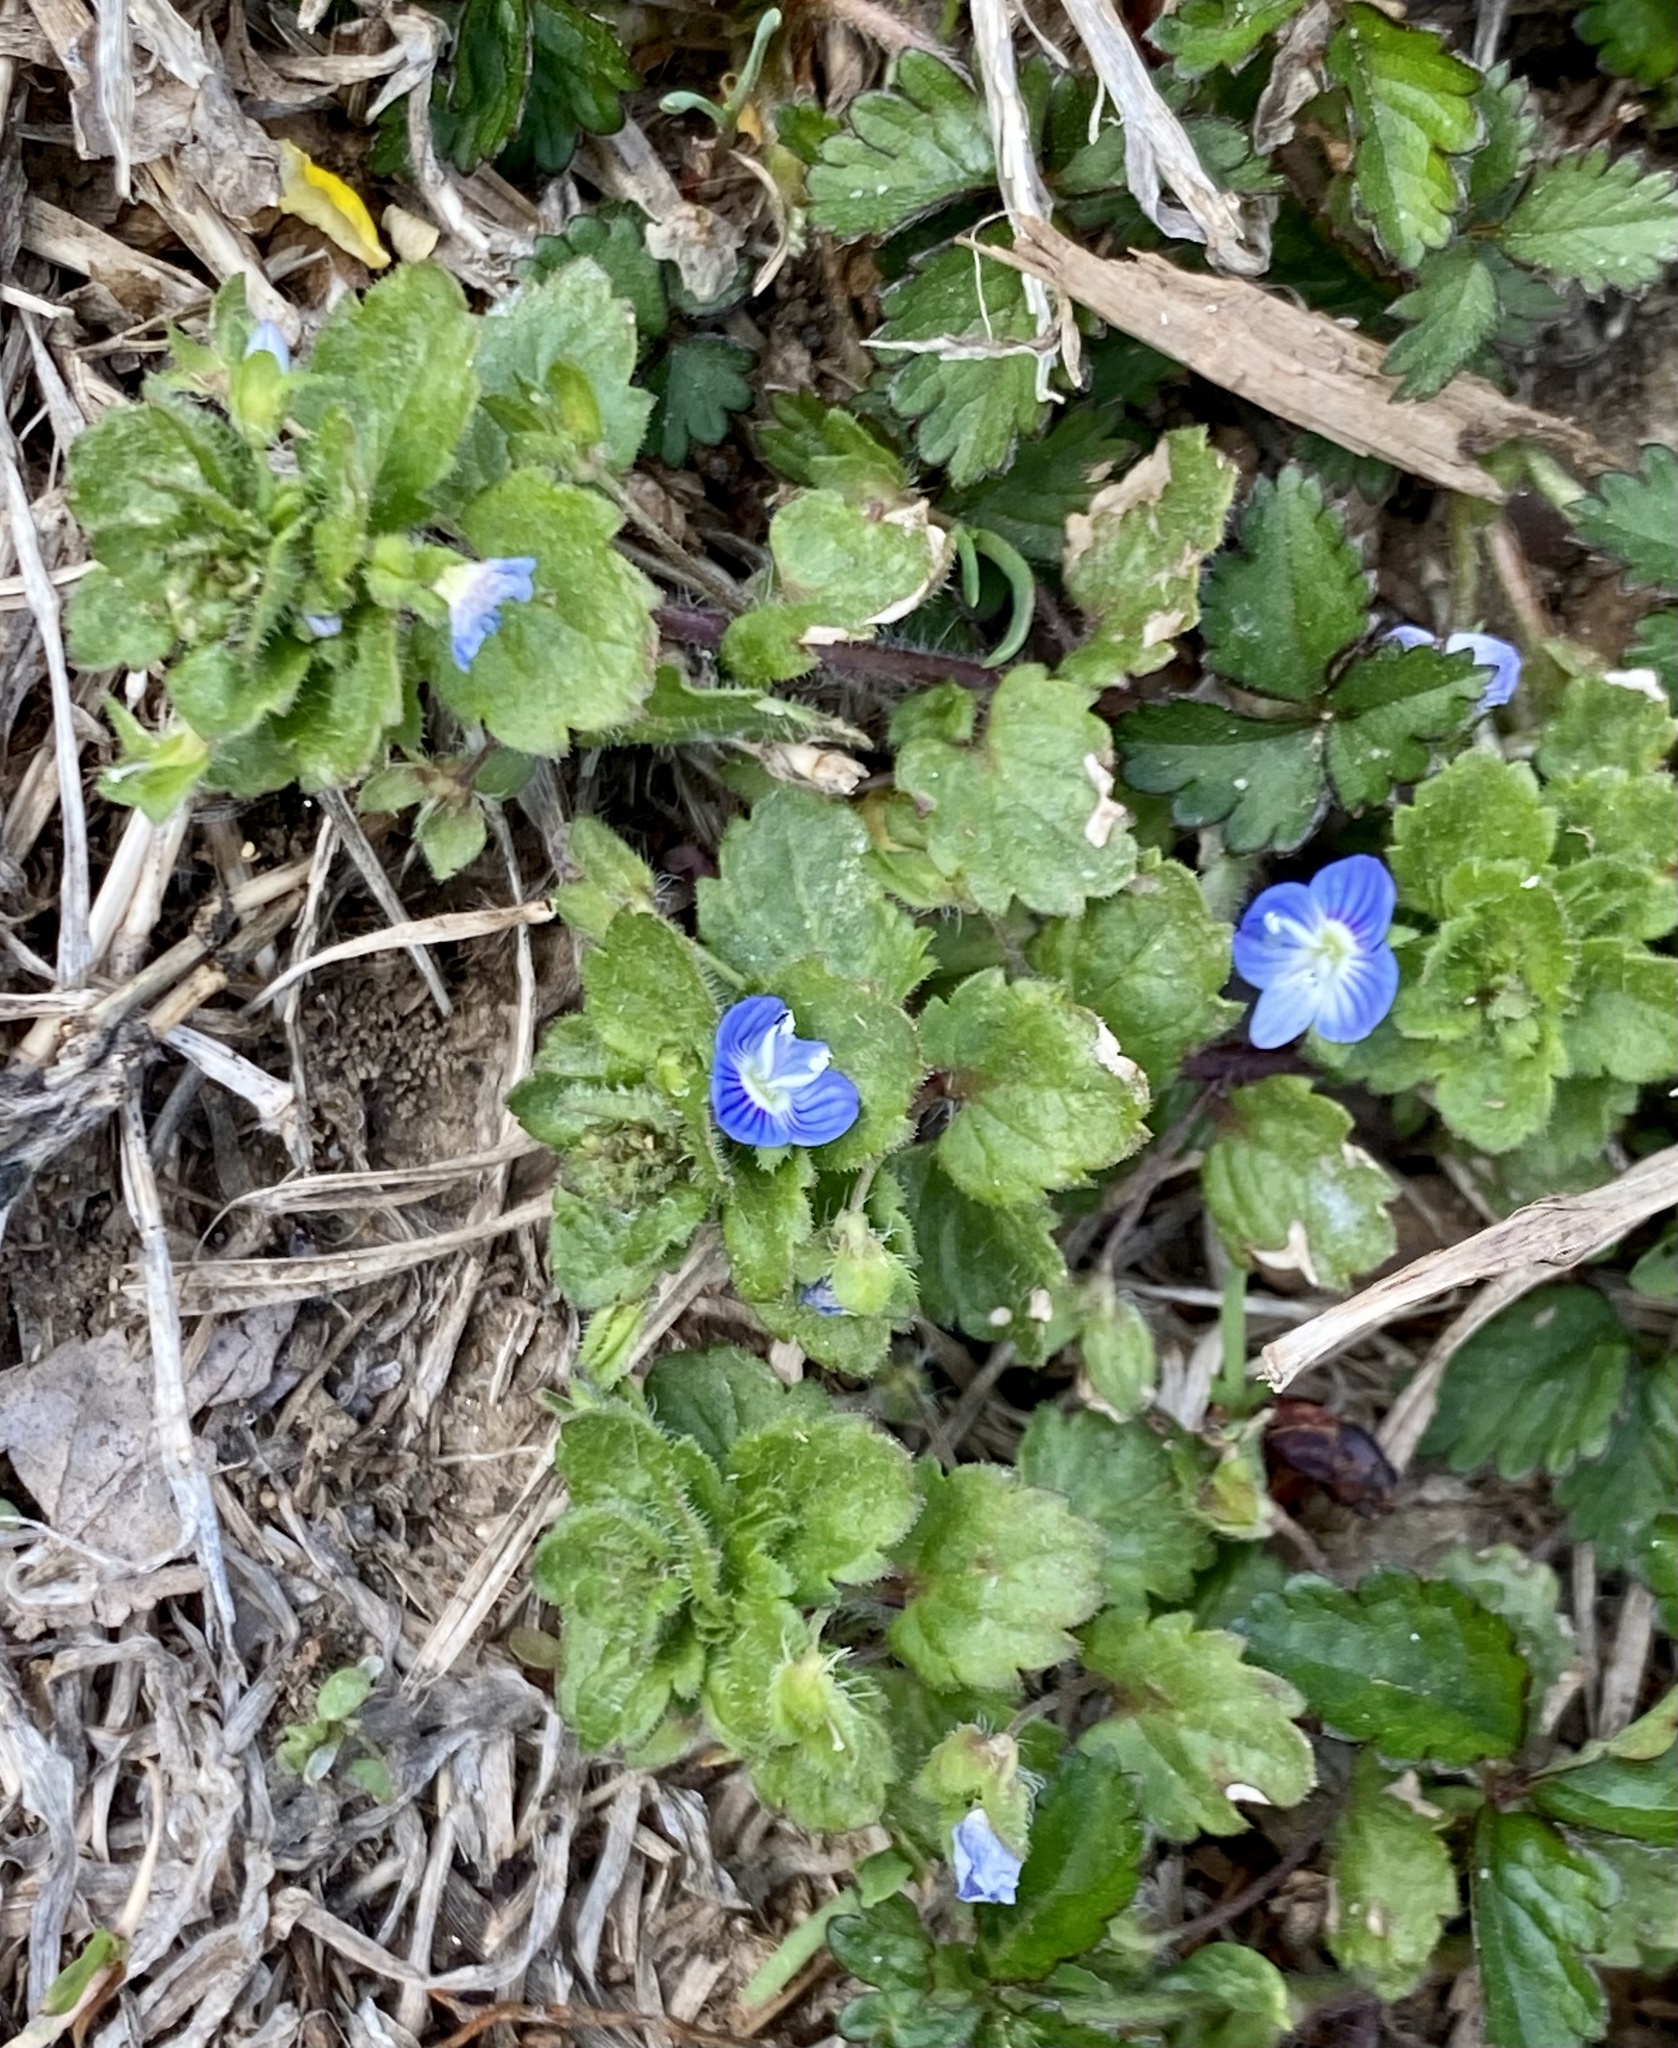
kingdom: Plantae
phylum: Tracheophyta
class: Magnoliopsida
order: Lamiales
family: Plantaginaceae
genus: Veronica
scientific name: Veronica persica
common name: Common field-speedwell
